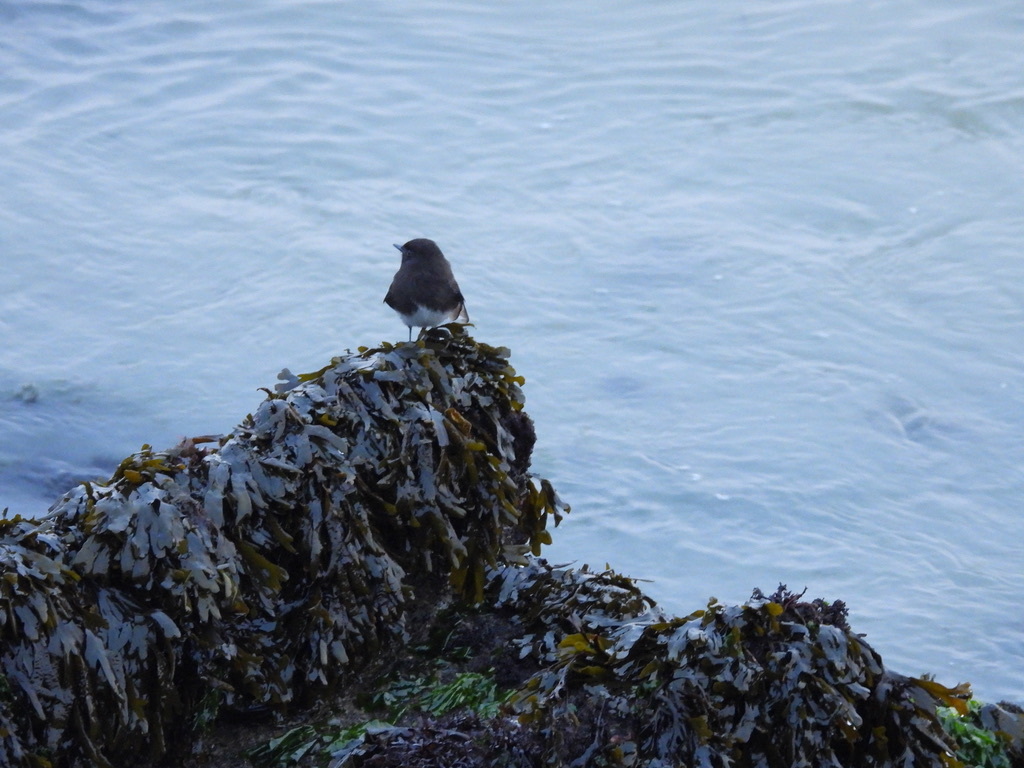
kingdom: Animalia
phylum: Chordata
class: Aves
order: Passeriformes
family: Tyrannidae
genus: Sayornis
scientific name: Sayornis nigricans
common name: Black phoebe
